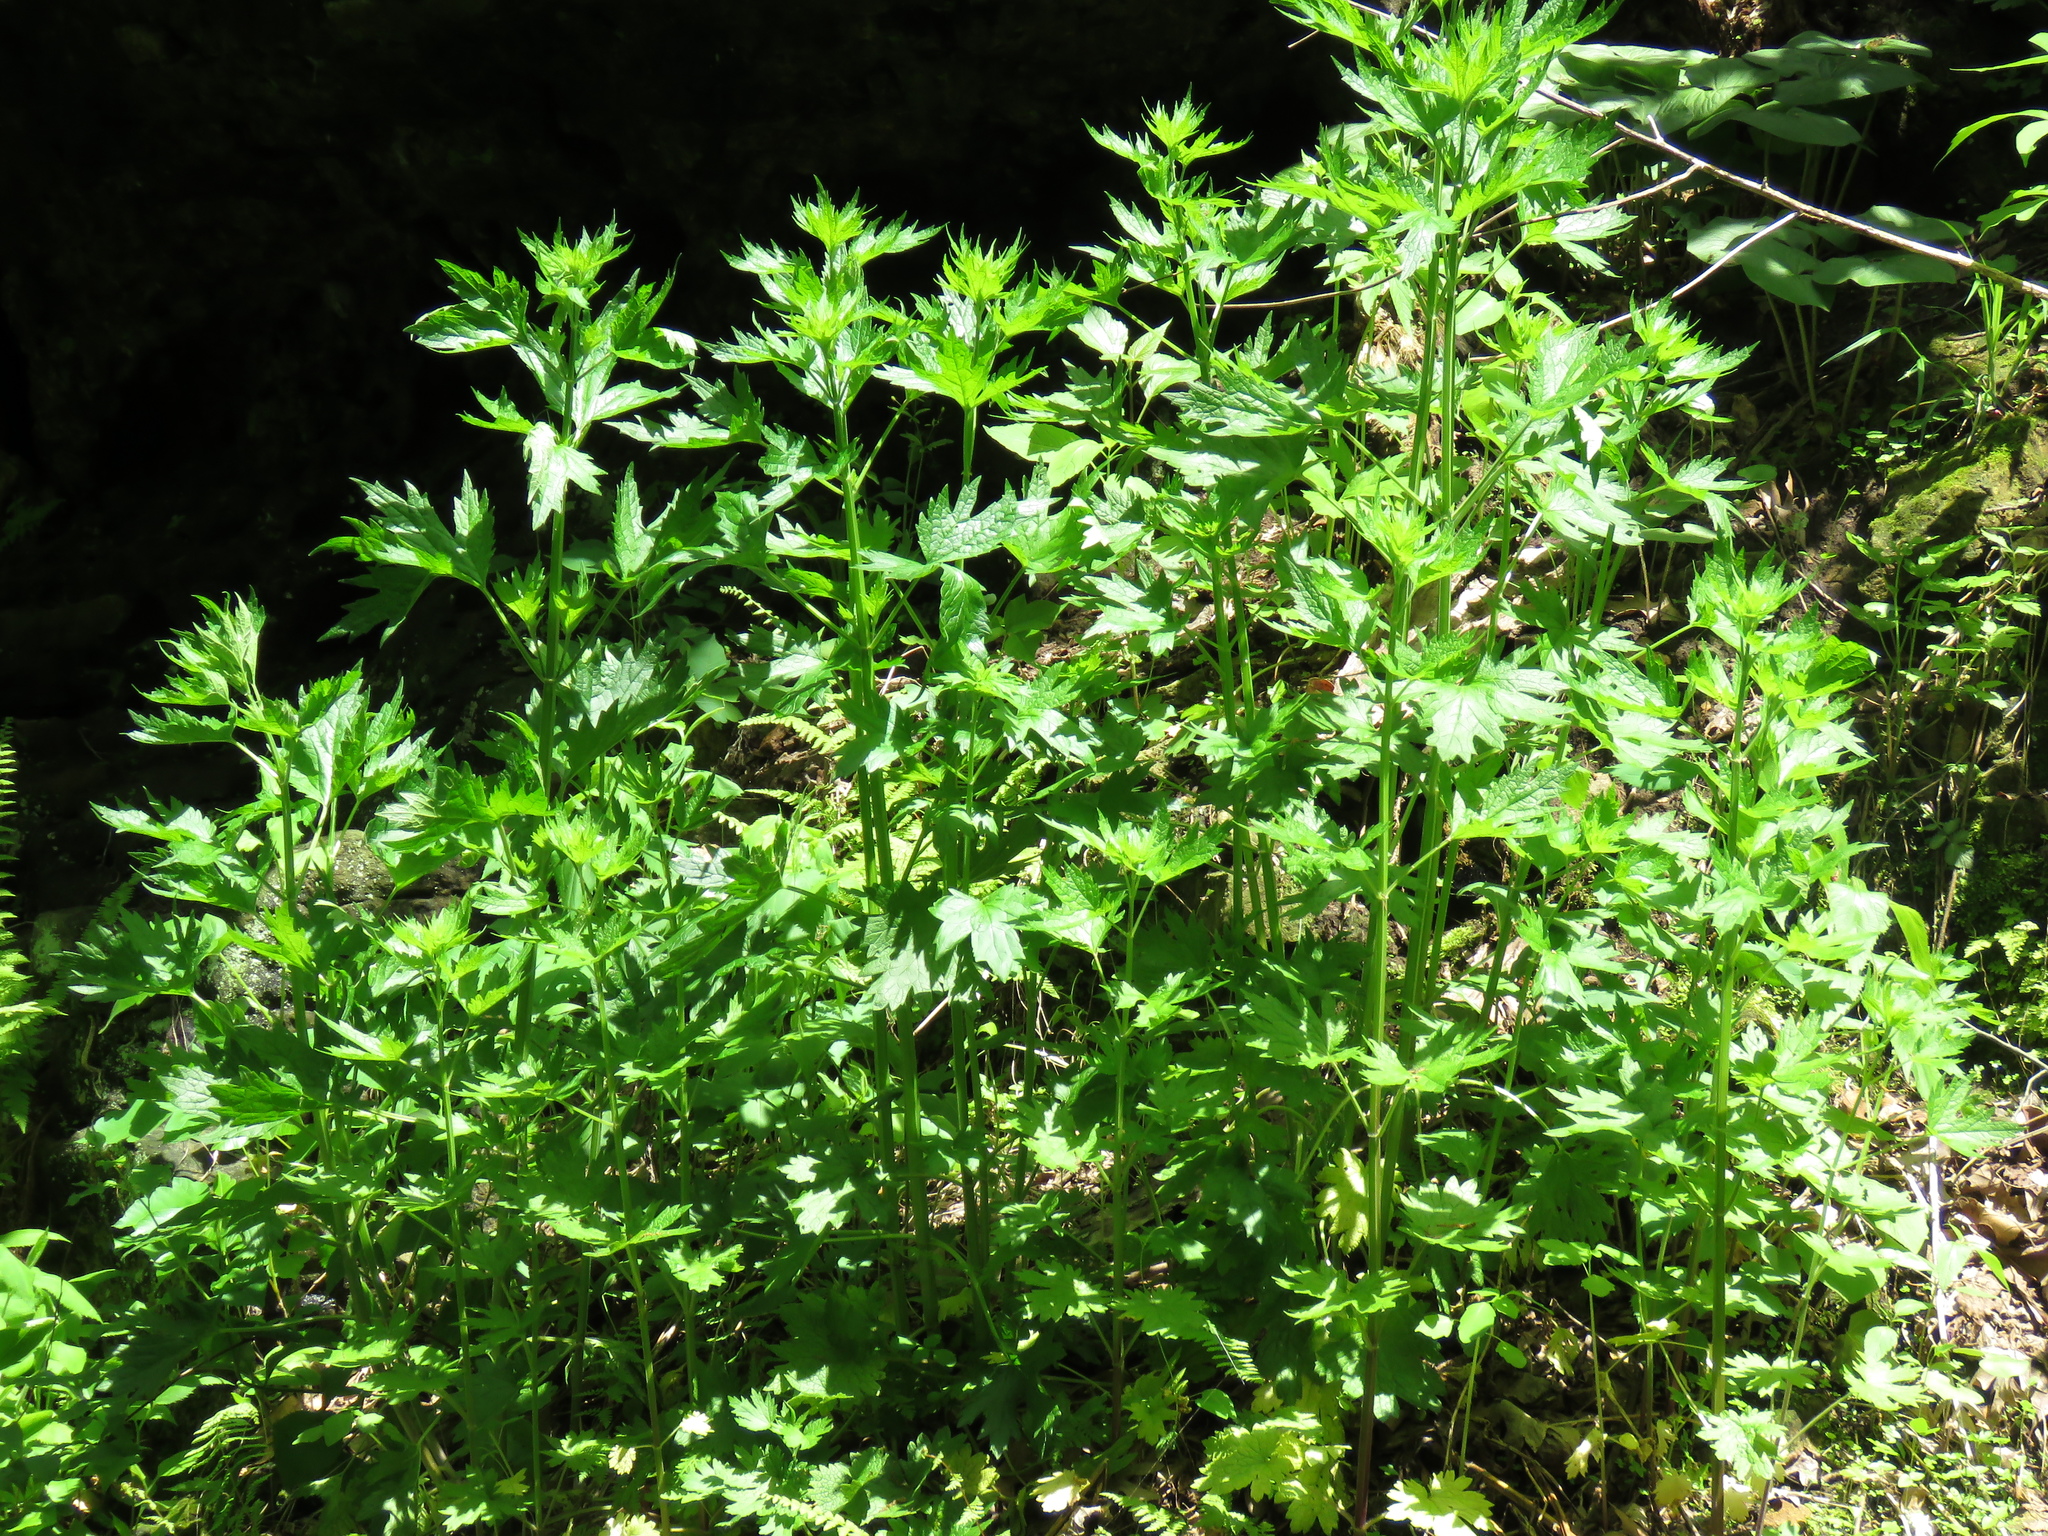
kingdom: Plantae
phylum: Tracheophyta
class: Magnoliopsida
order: Lamiales
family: Lamiaceae
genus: Leonurus
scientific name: Leonurus cardiaca
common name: Motherwort
